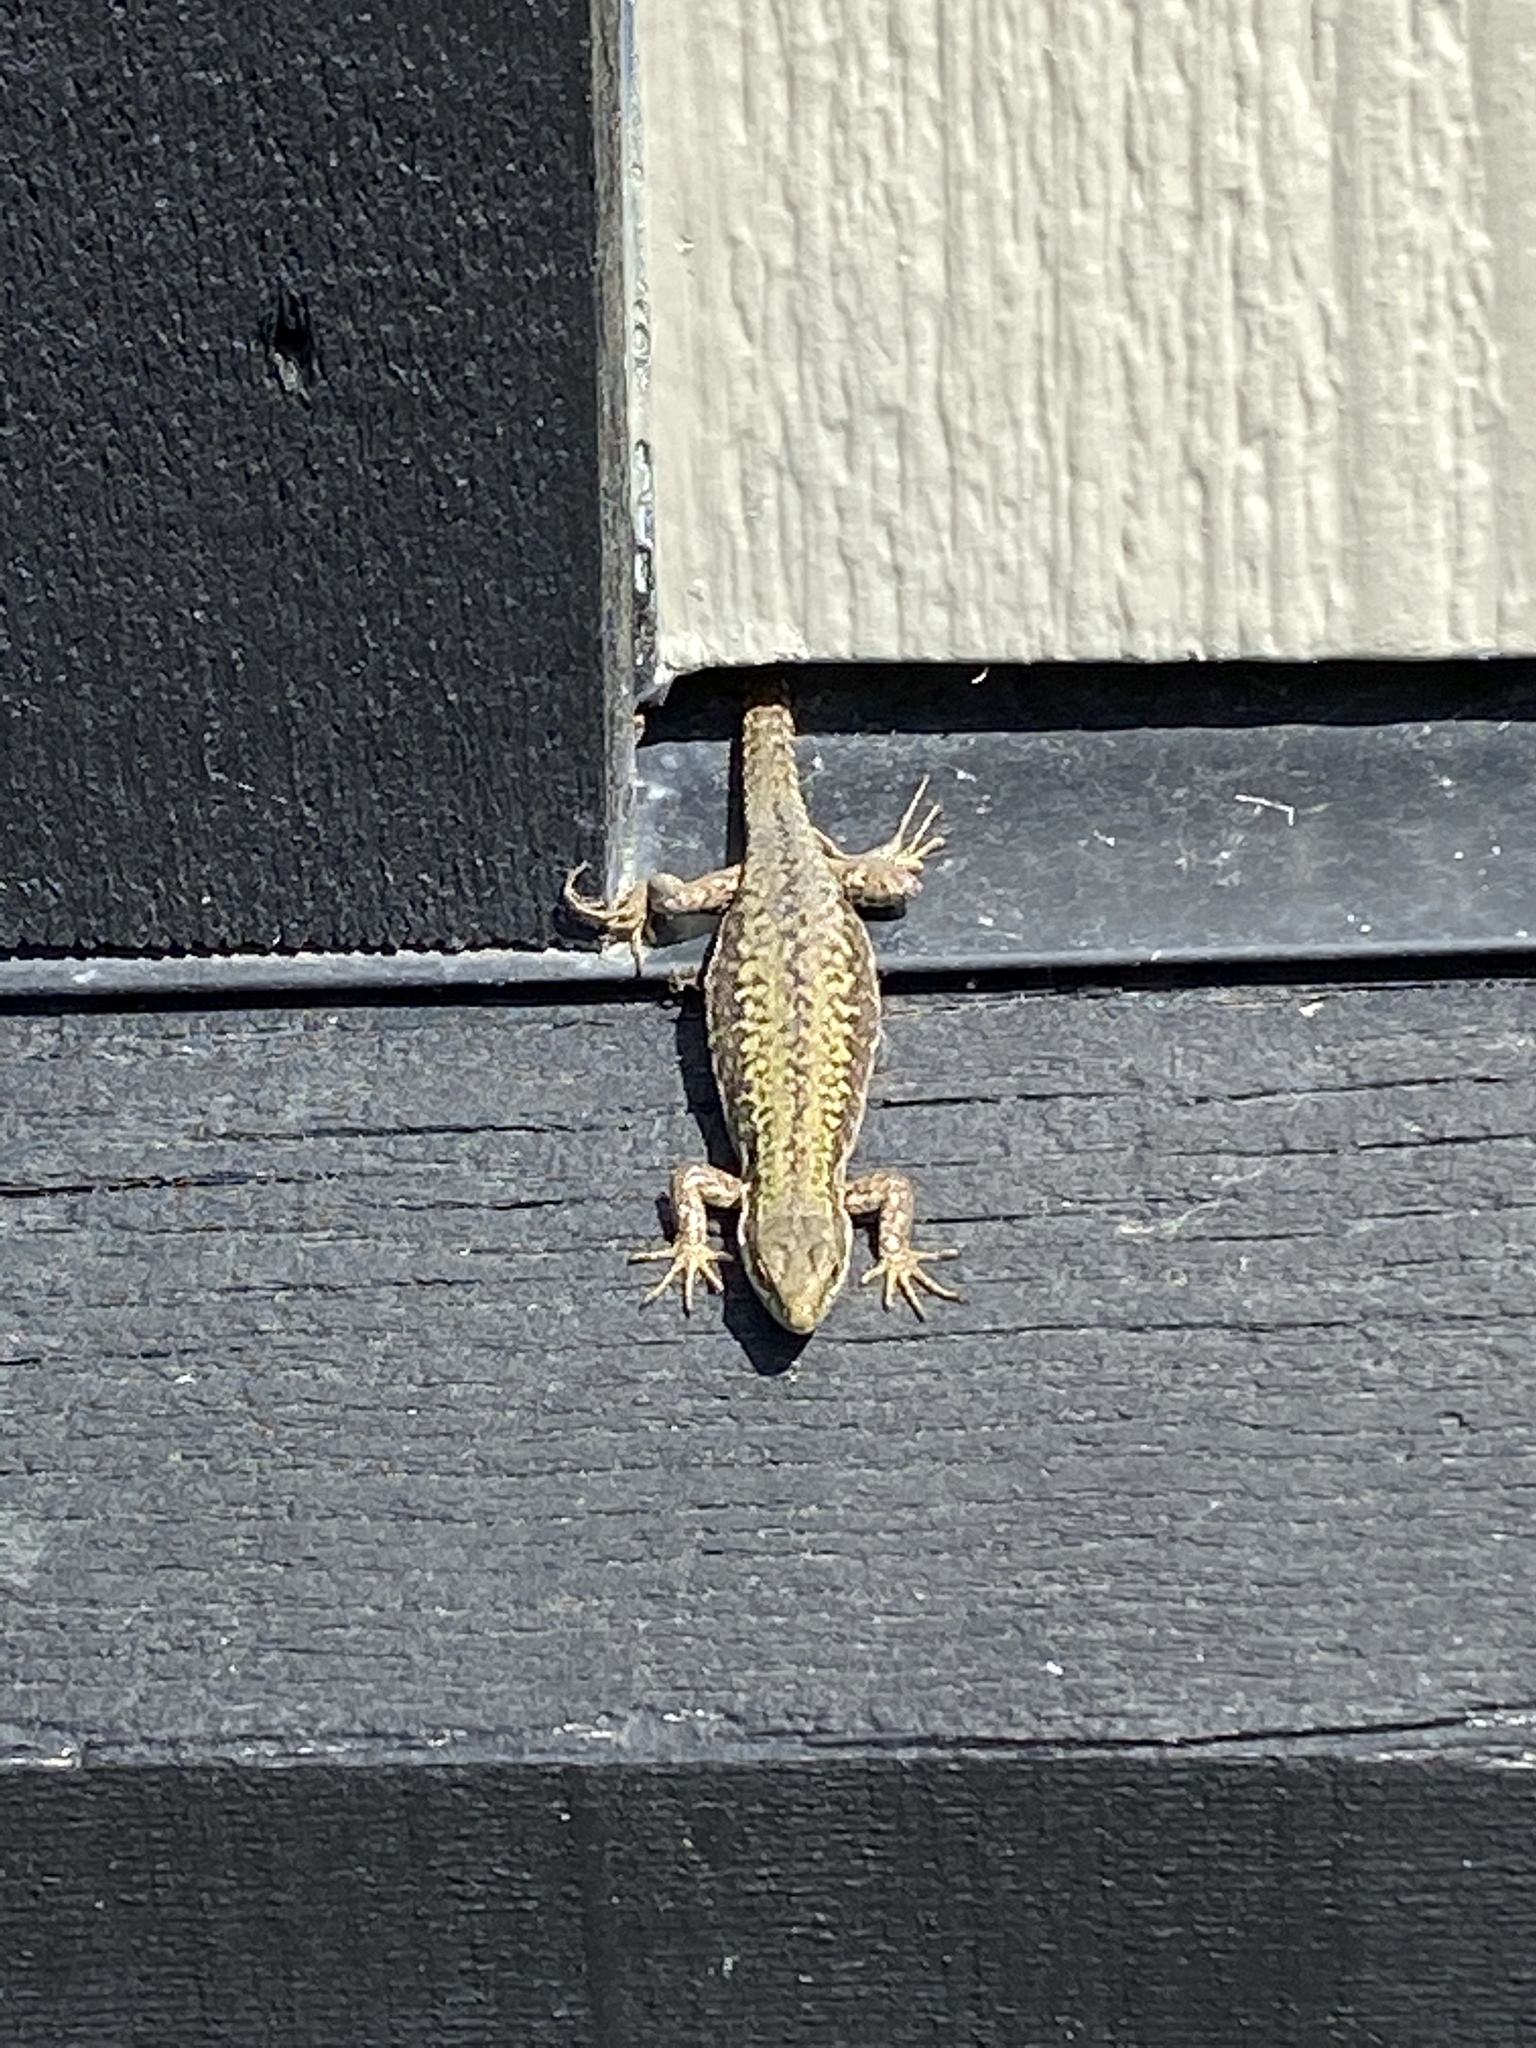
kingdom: Animalia
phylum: Chordata
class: Squamata
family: Lacertidae
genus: Podarcis
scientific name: Podarcis muralis
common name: Common wall lizard
